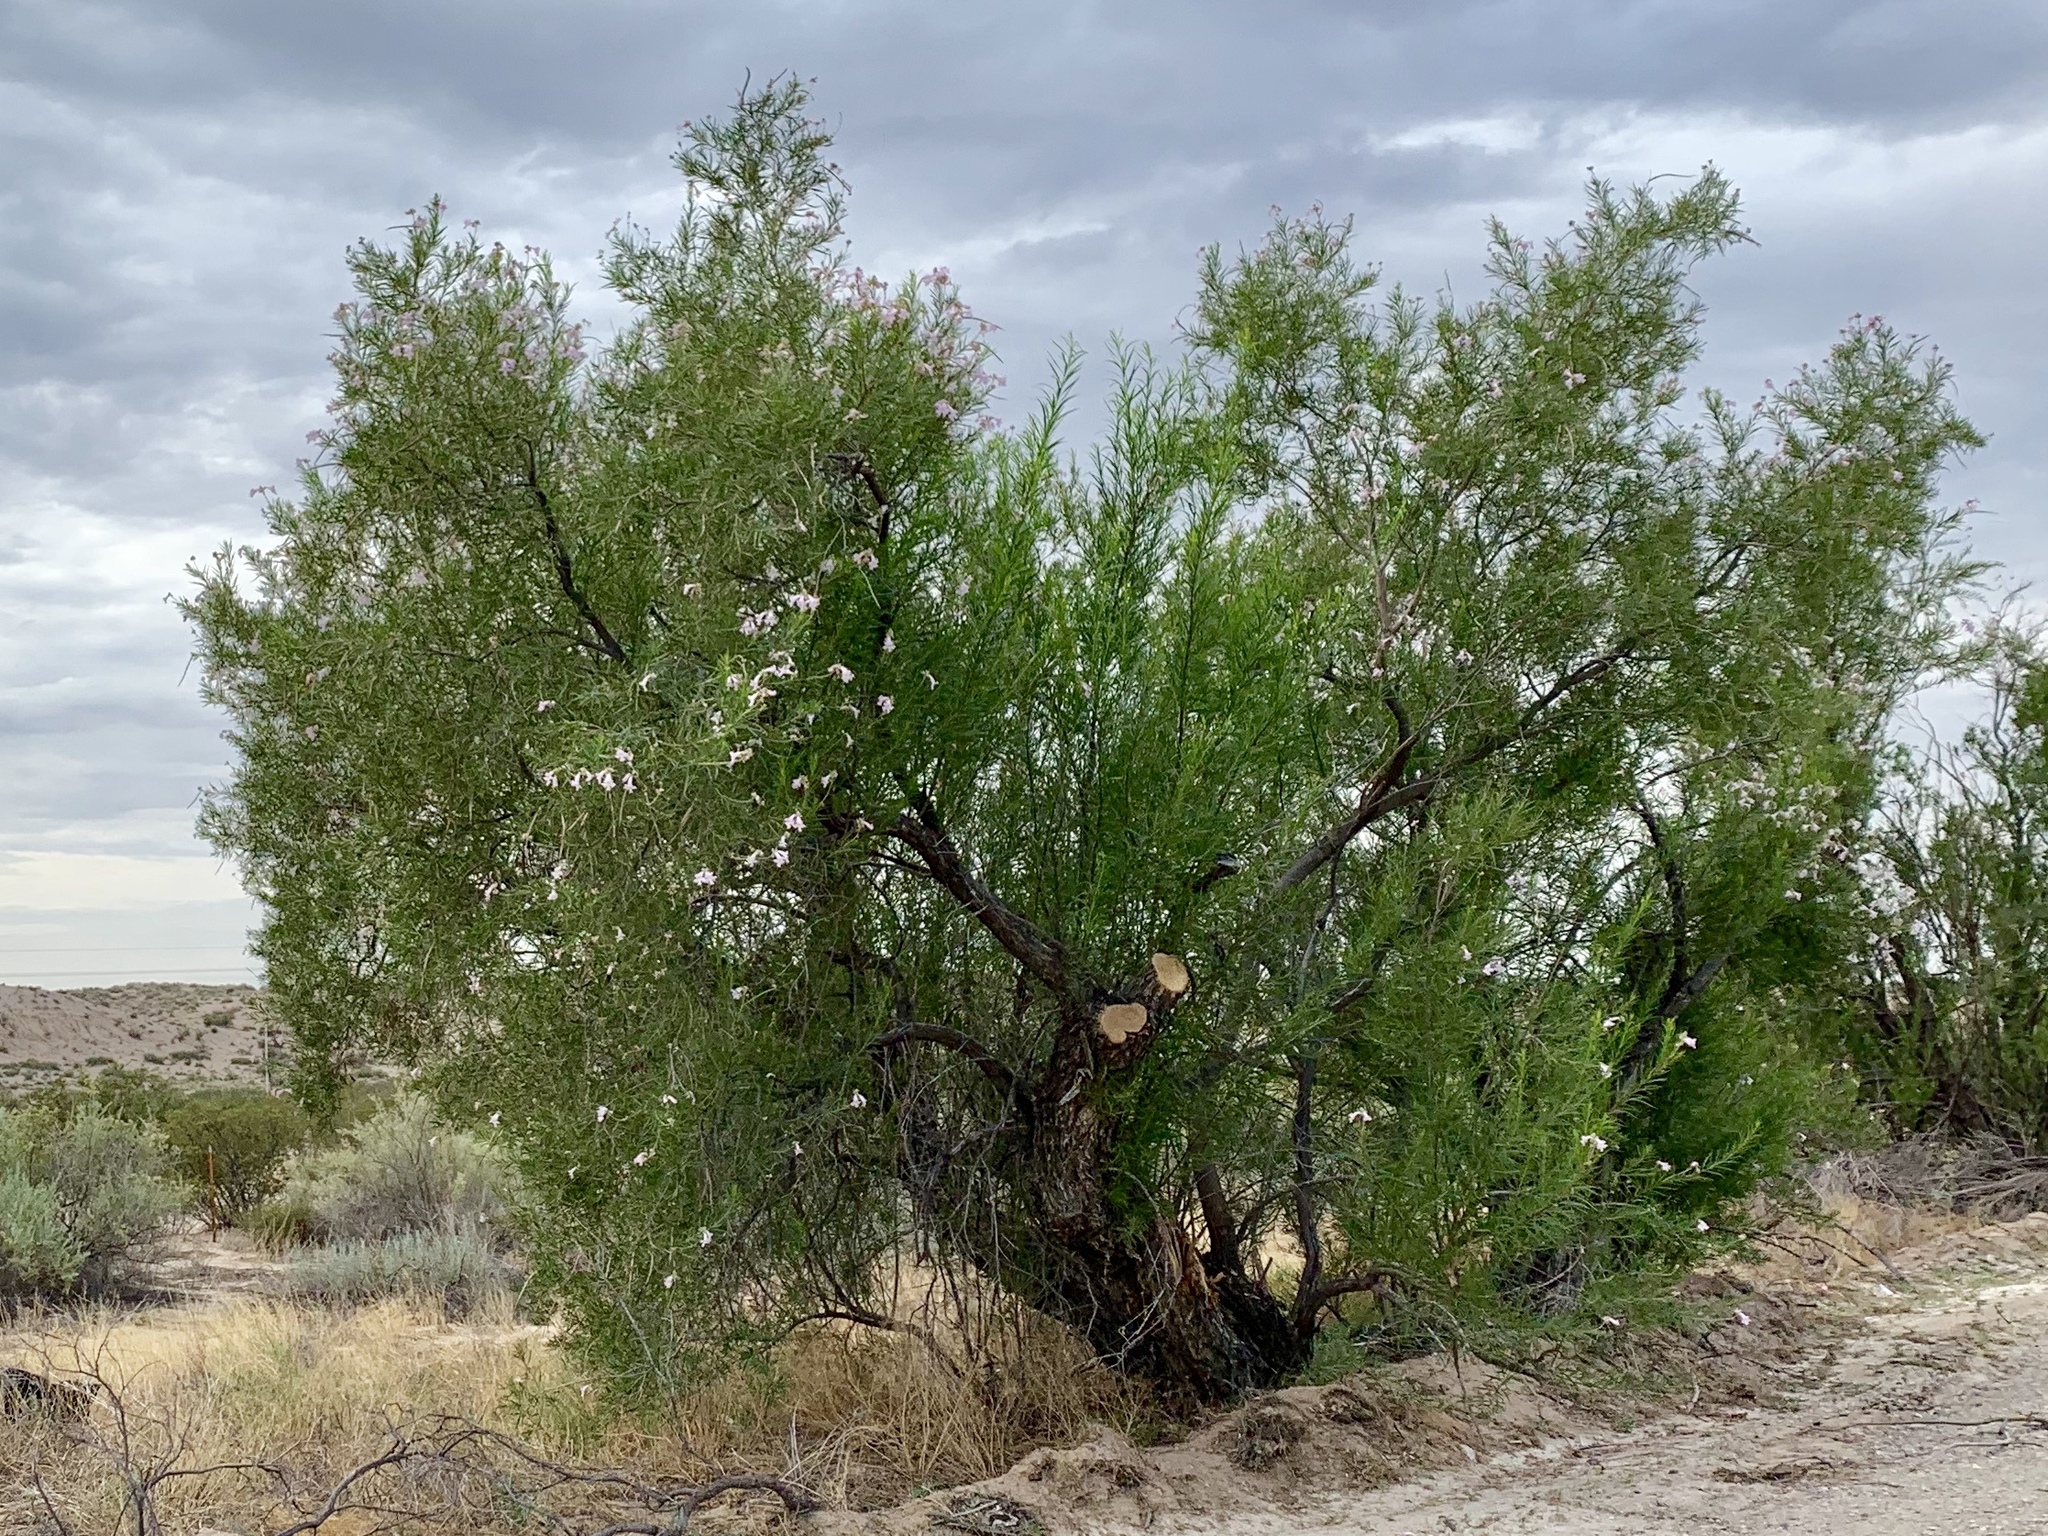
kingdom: Plantae
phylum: Tracheophyta
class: Magnoliopsida
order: Lamiales
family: Bignoniaceae
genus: Chilopsis
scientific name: Chilopsis linearis
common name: Desert-willow
